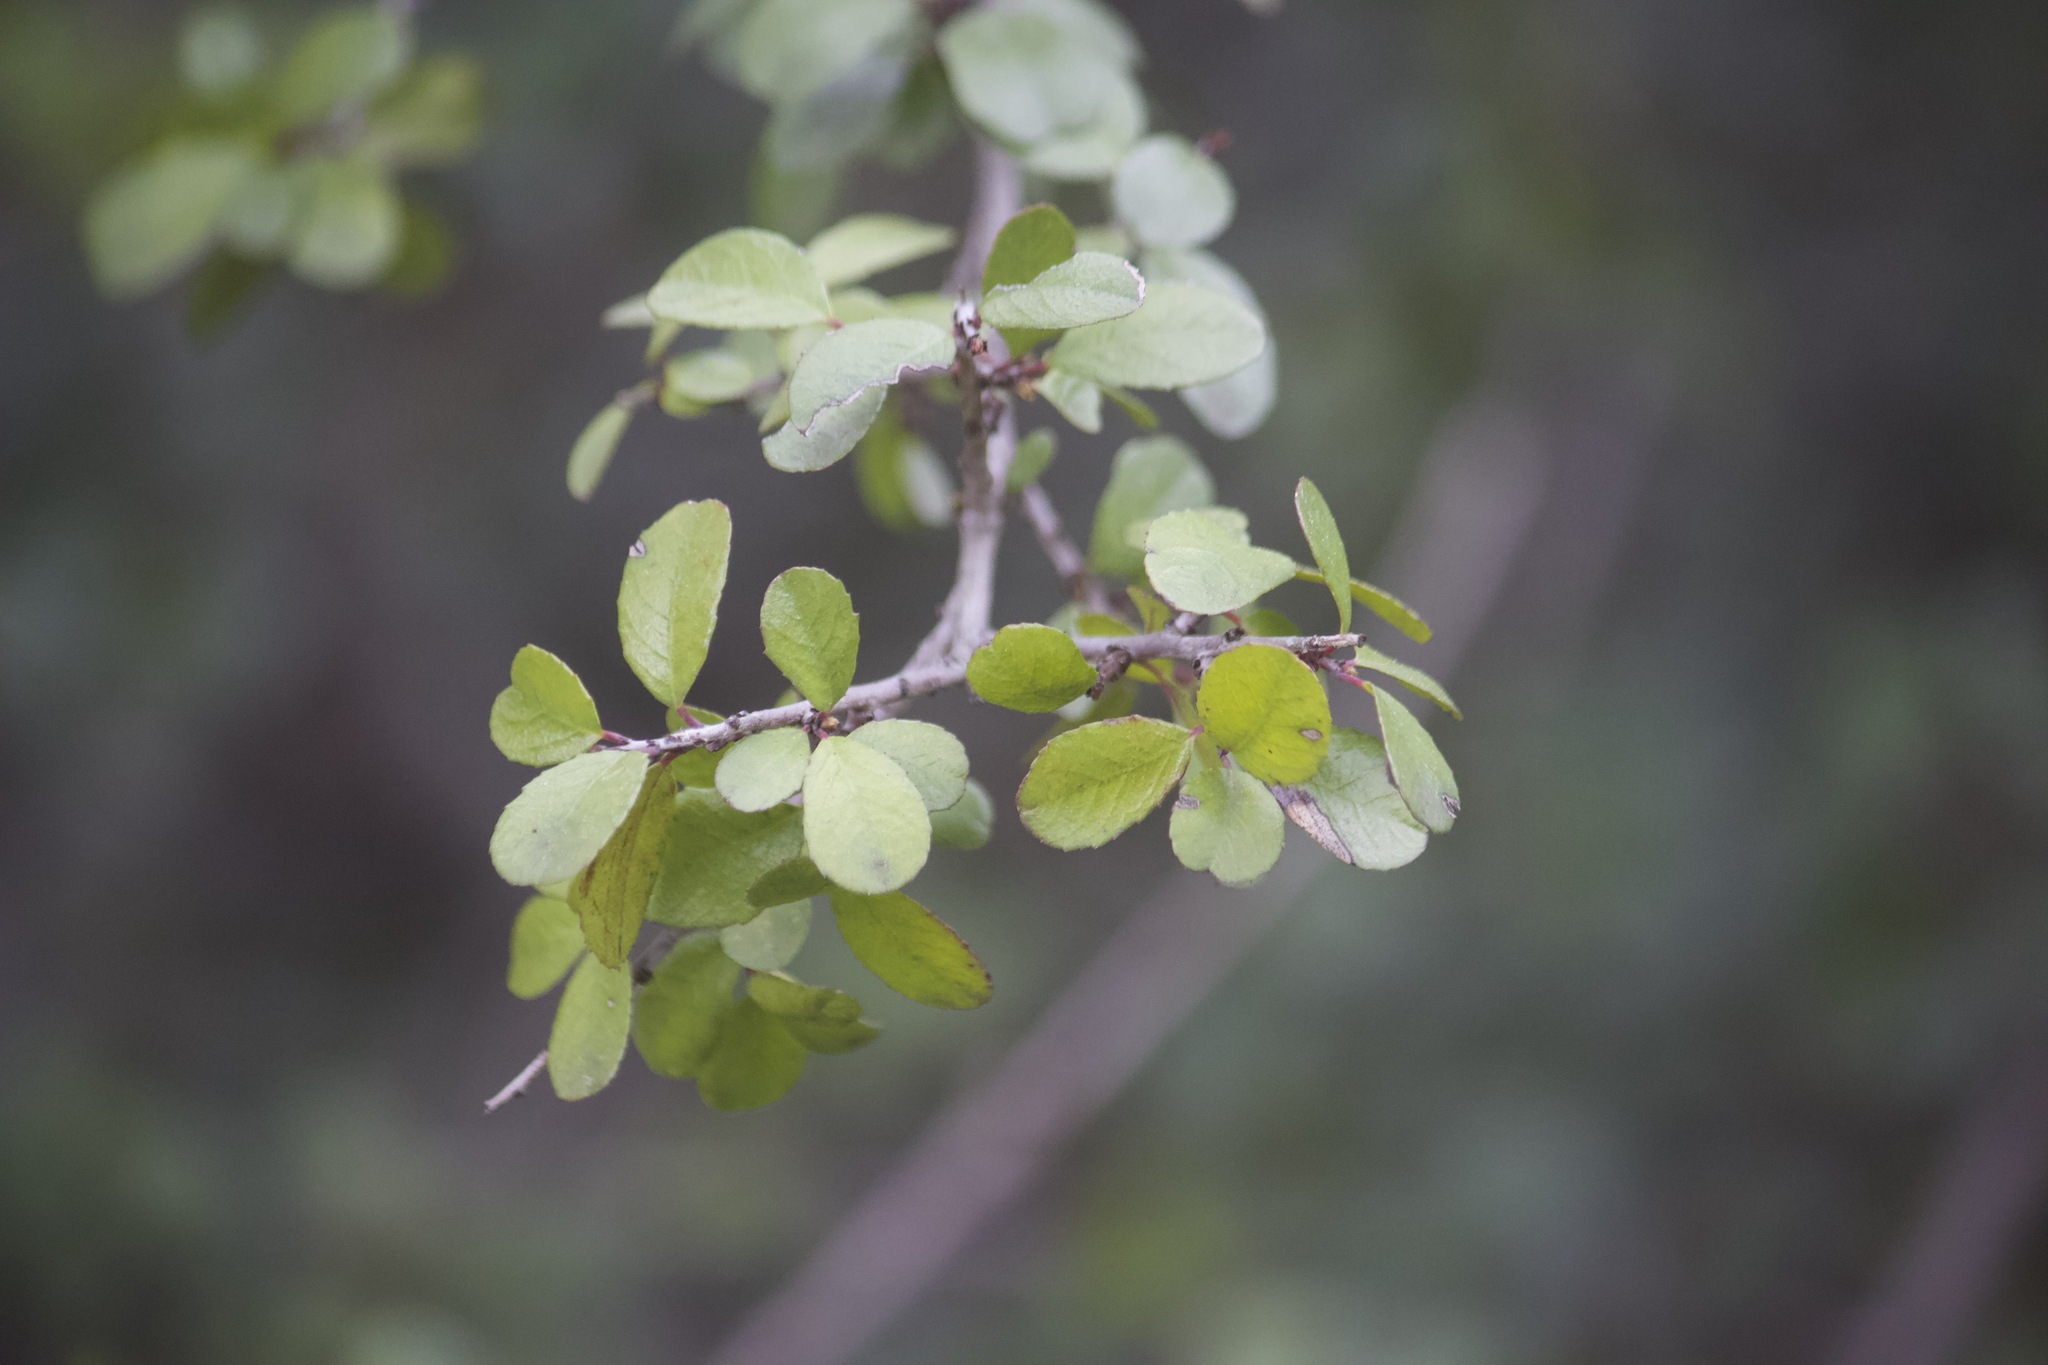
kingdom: Plantae
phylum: Tracheophyta
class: Magnoliopsida
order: Rosales
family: Rhamnaceae
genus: Endotropis
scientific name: Endotropis crocea
